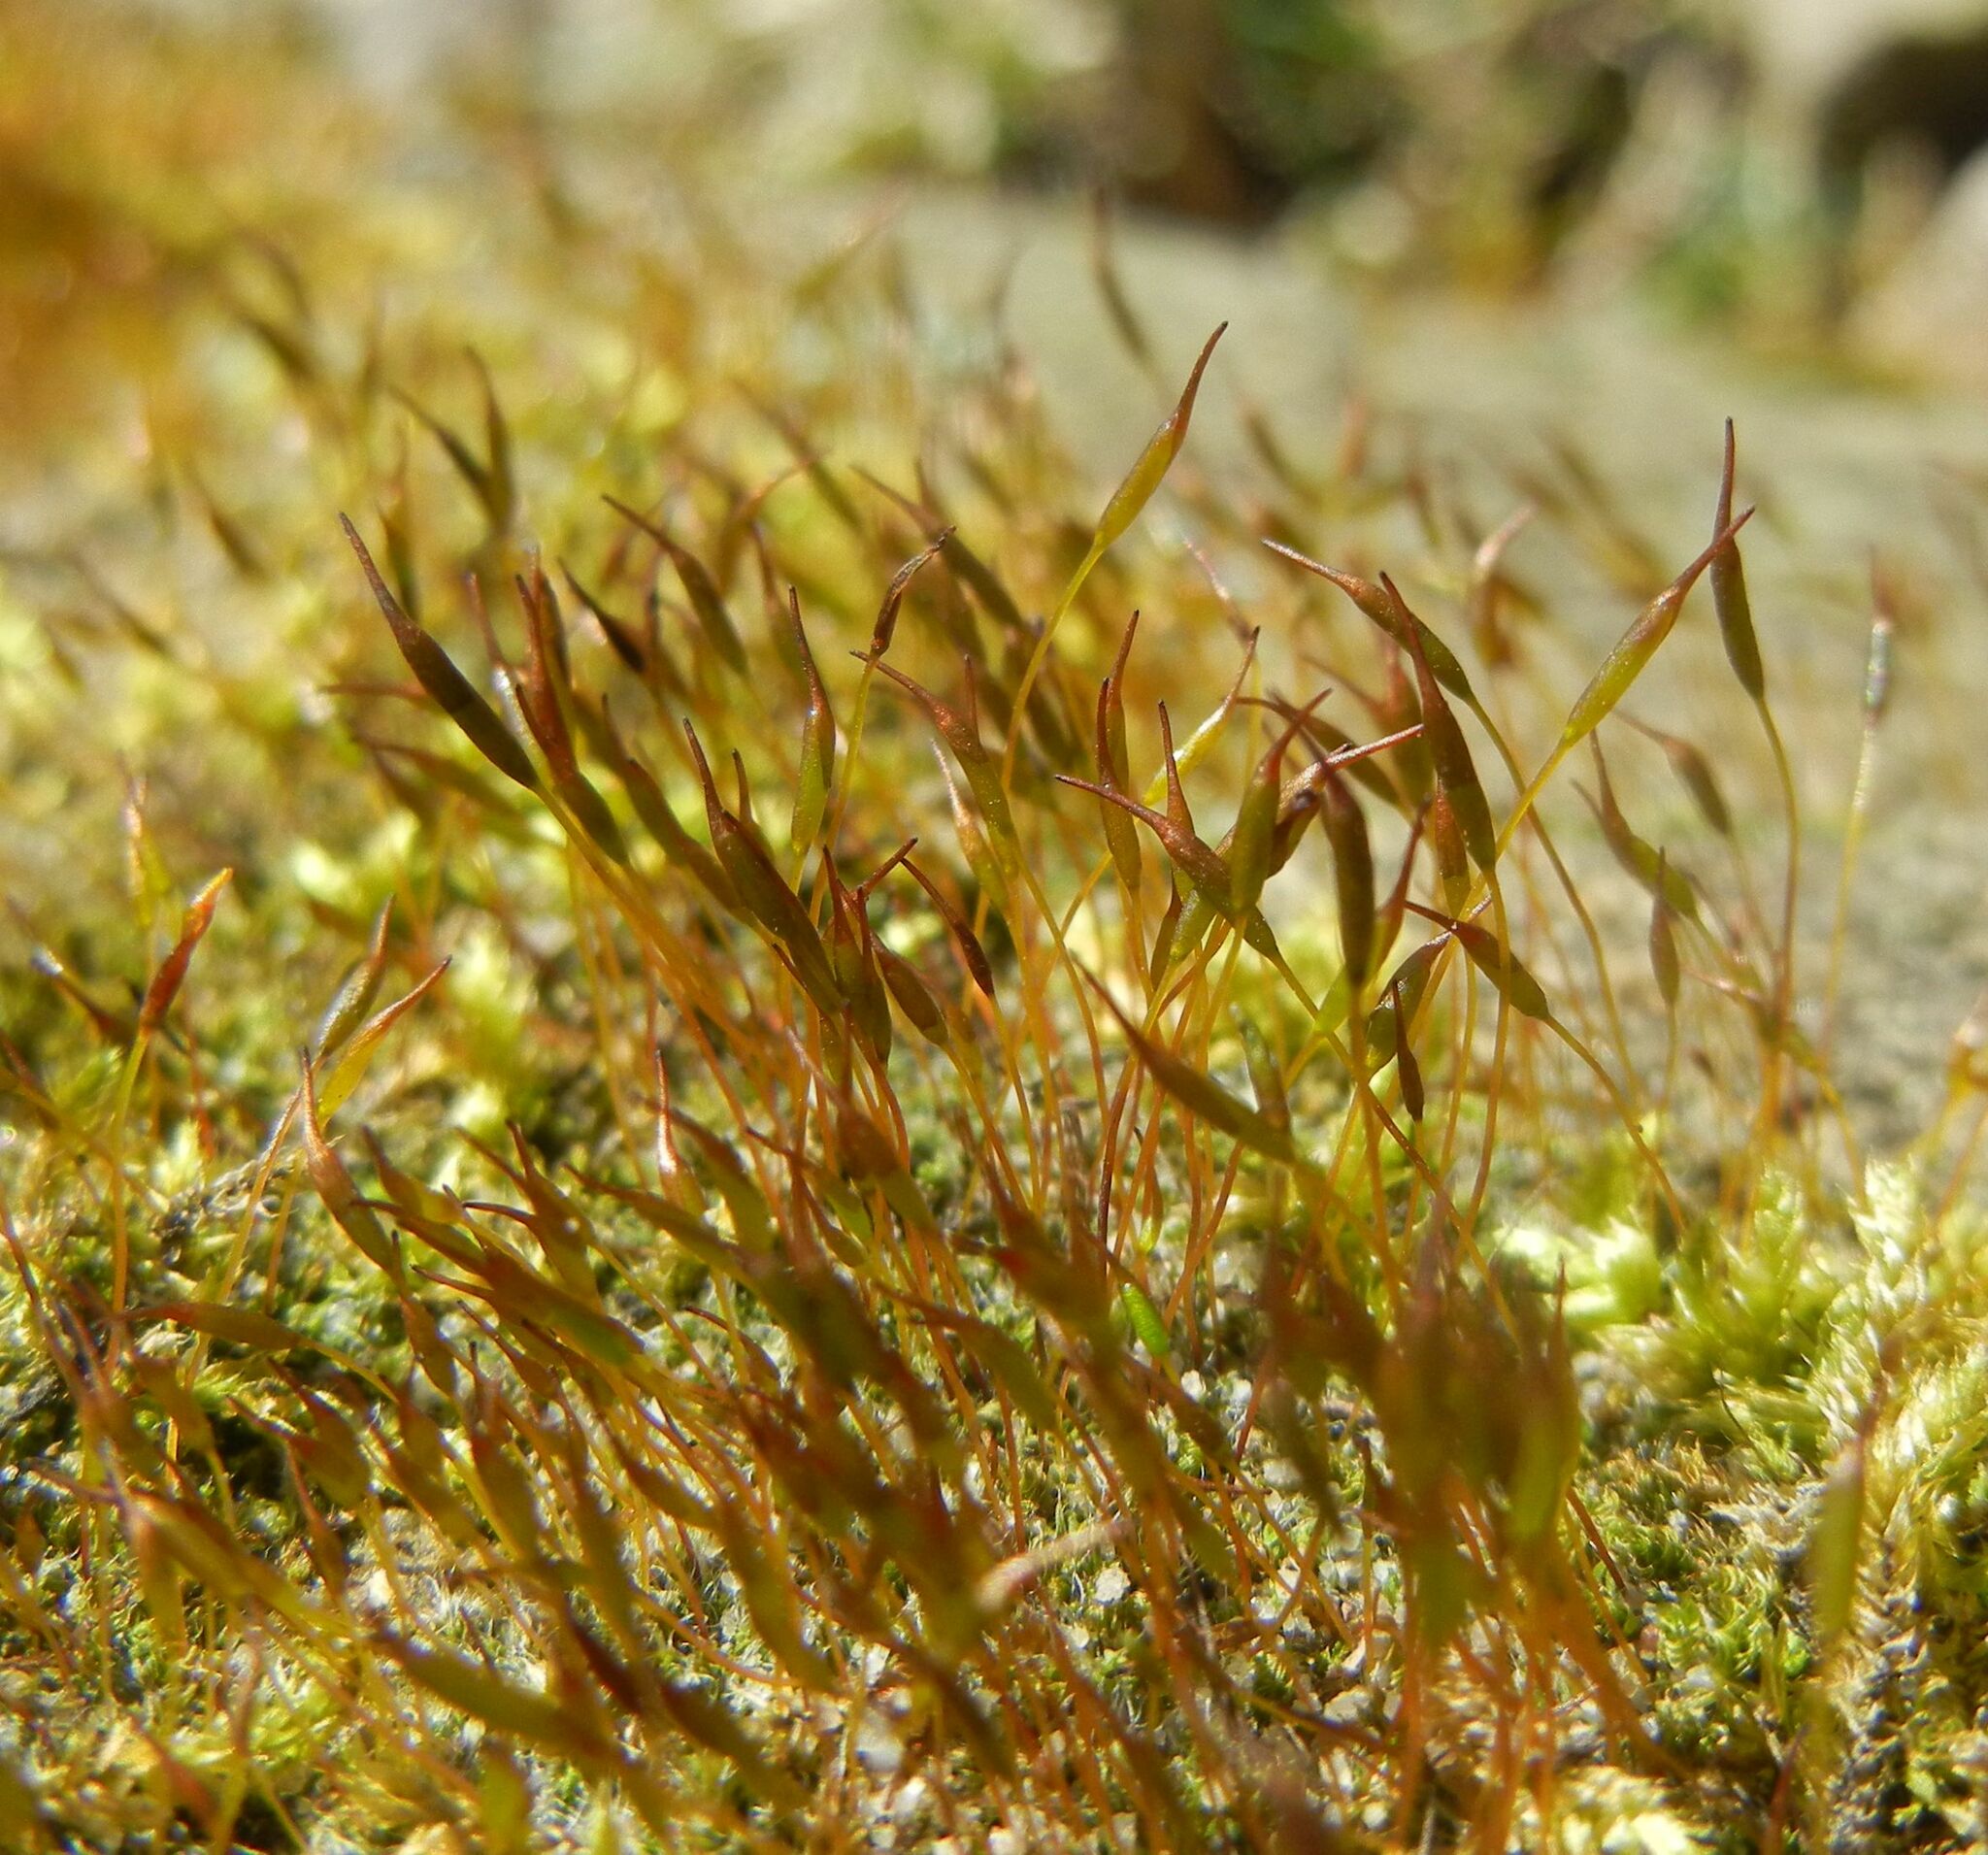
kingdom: Plantae
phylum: Bryophyta
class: Bryopsida
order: Pottiales
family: Pottiaceae
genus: Tortula
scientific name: Tortula muralis
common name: Wall screw-moss
